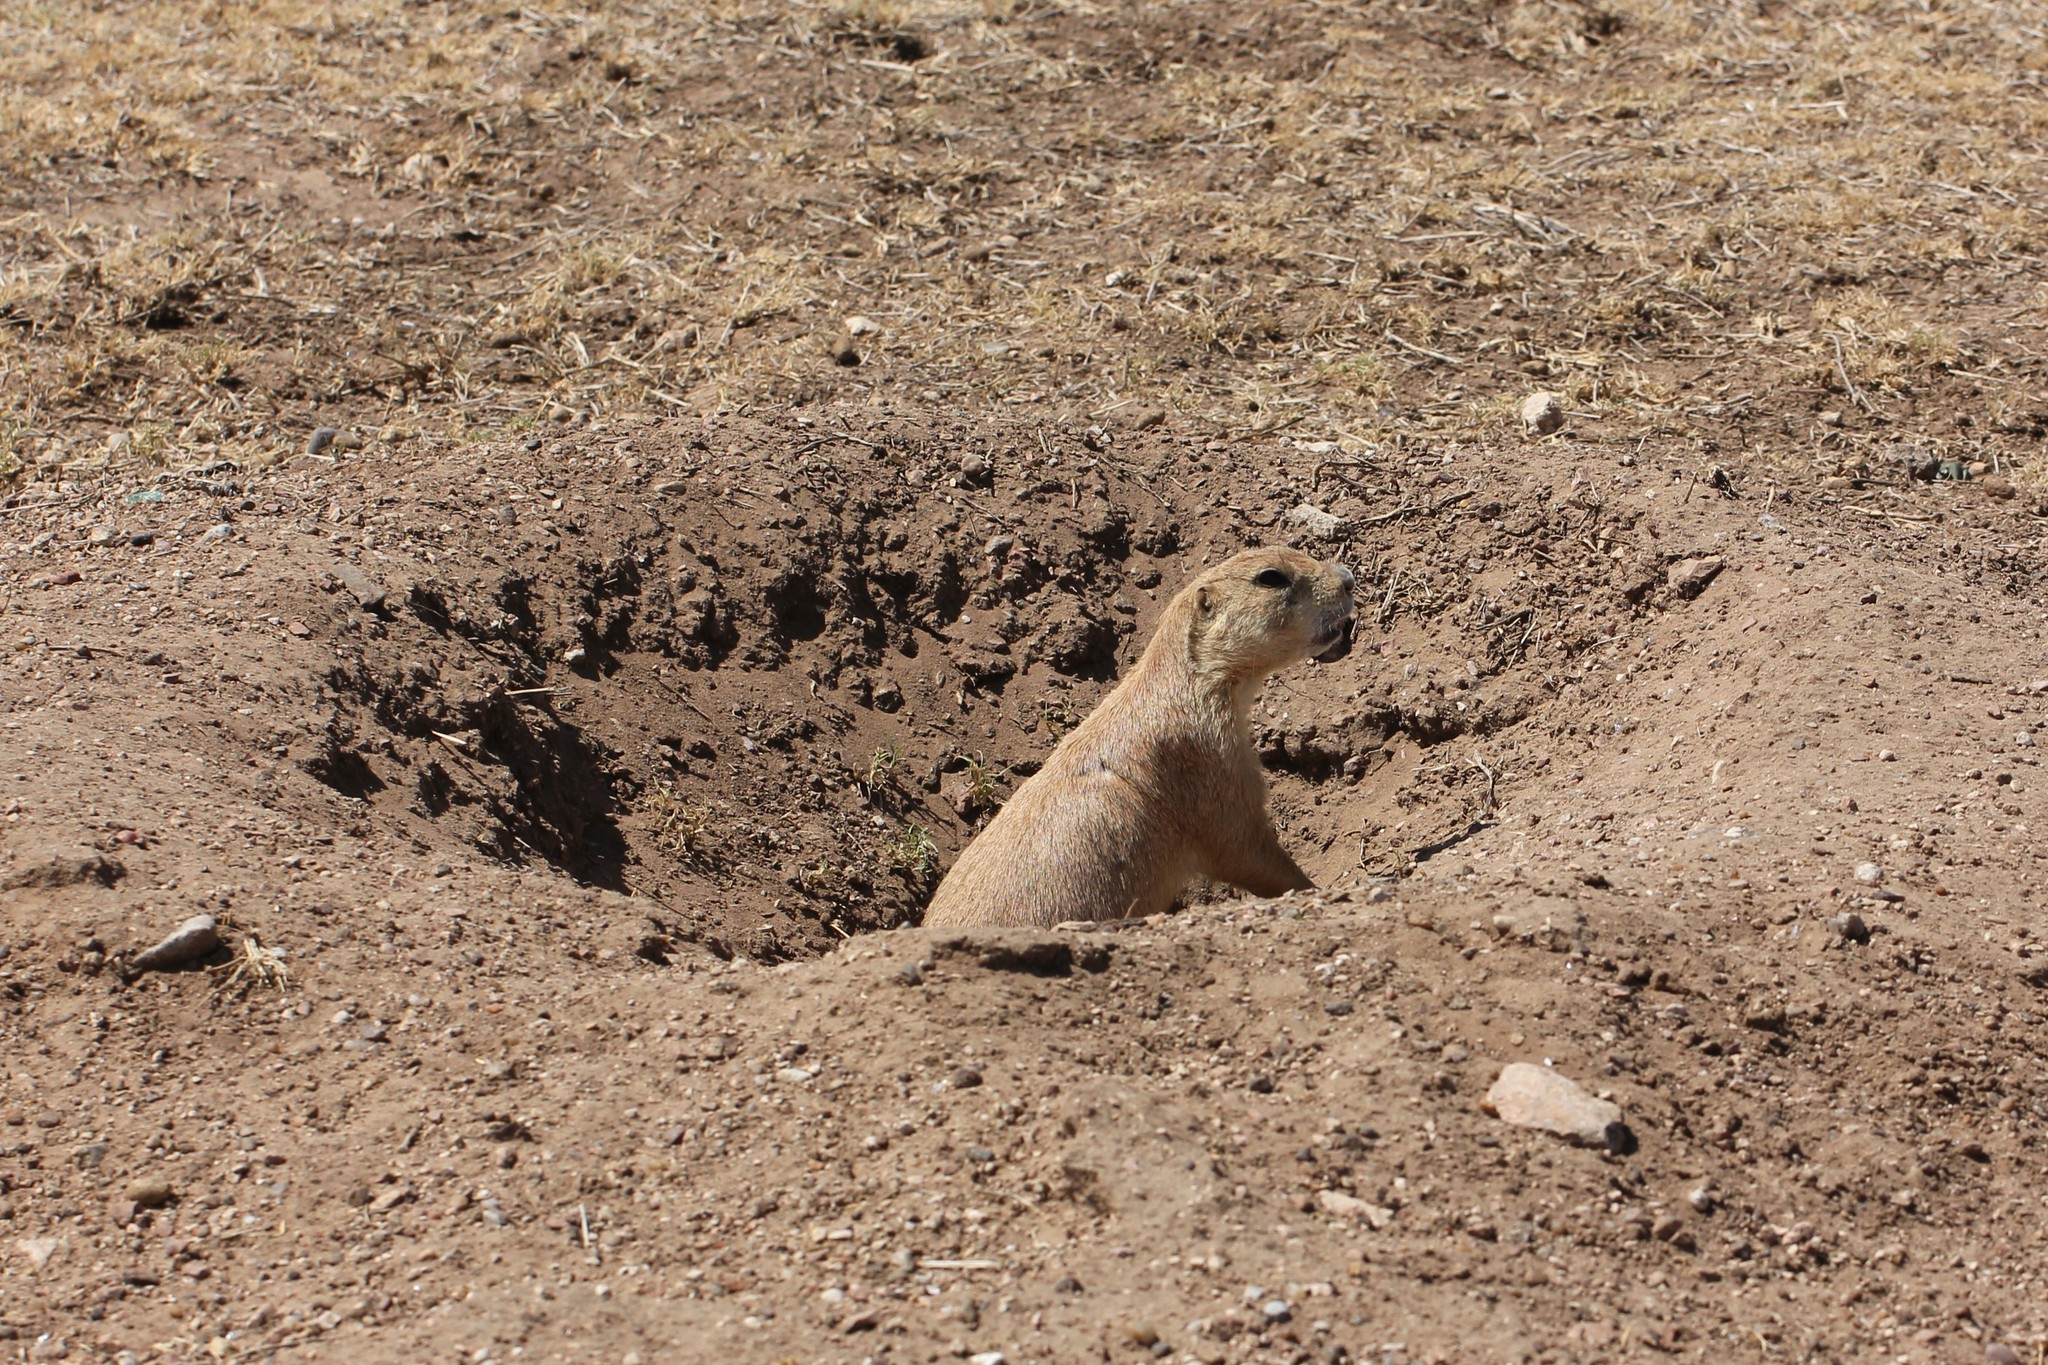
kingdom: Animalia
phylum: Chordata
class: Mammalia
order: Rodentia
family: Sciuridae
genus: Cynomys
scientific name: Cynomys ludovicianus
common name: Black-tailed prairie dog
